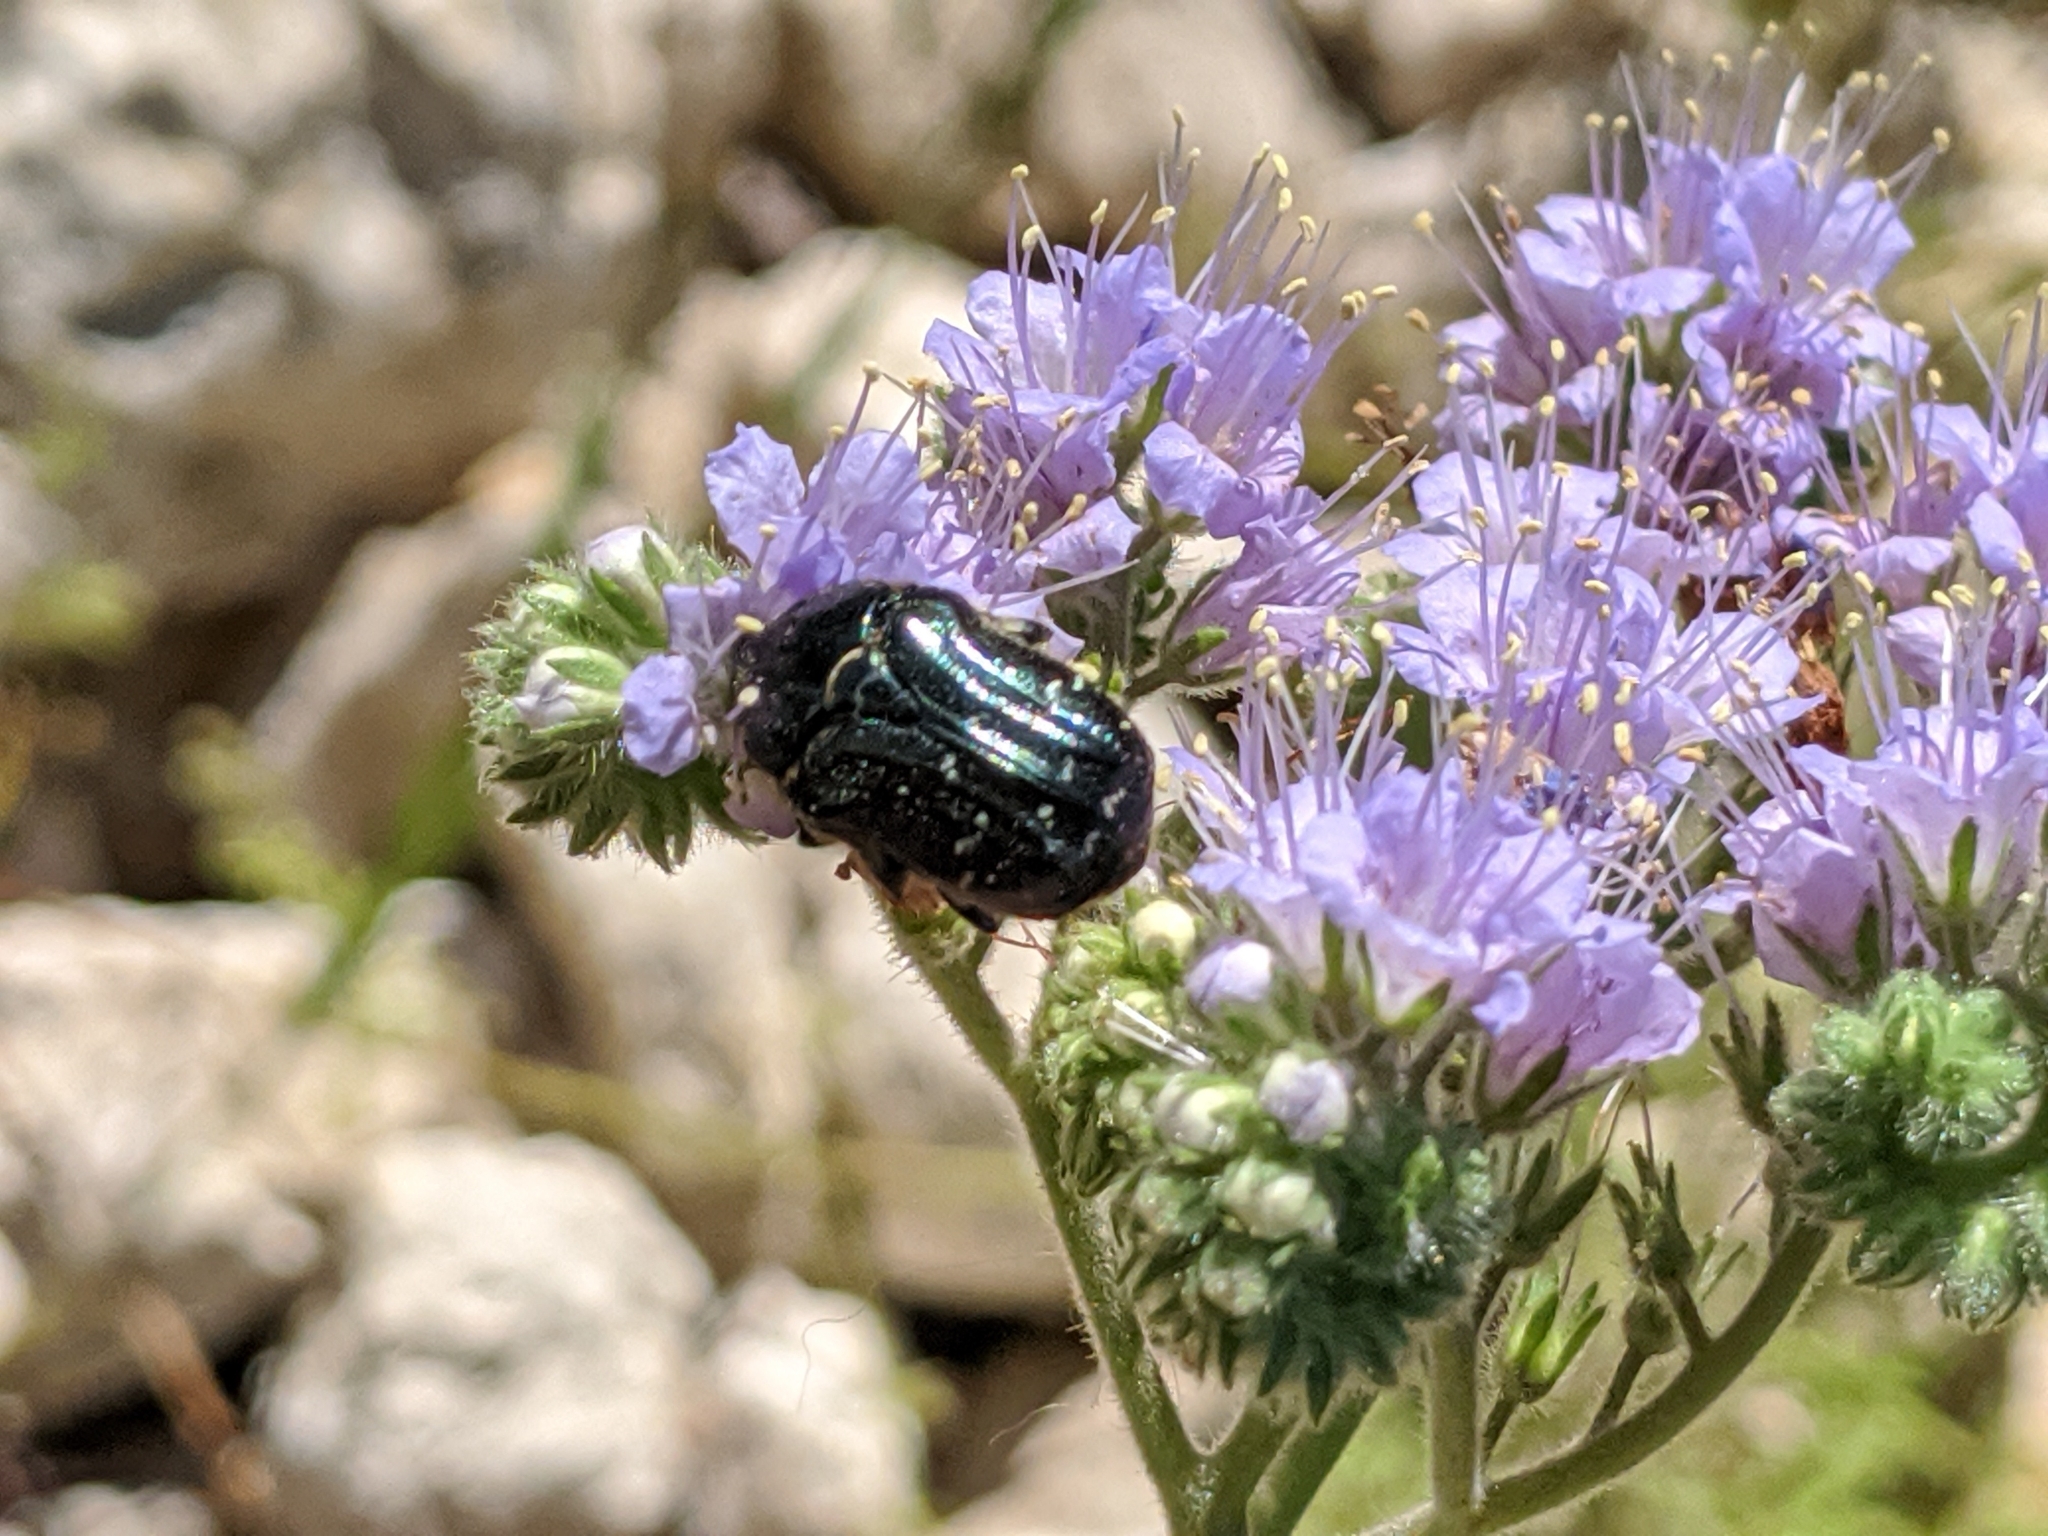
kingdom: Animalia
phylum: Arthropoda
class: Insecta
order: Coleoptera
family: Scarabaeidae
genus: Euphoria
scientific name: Euphoria sepulcralis
